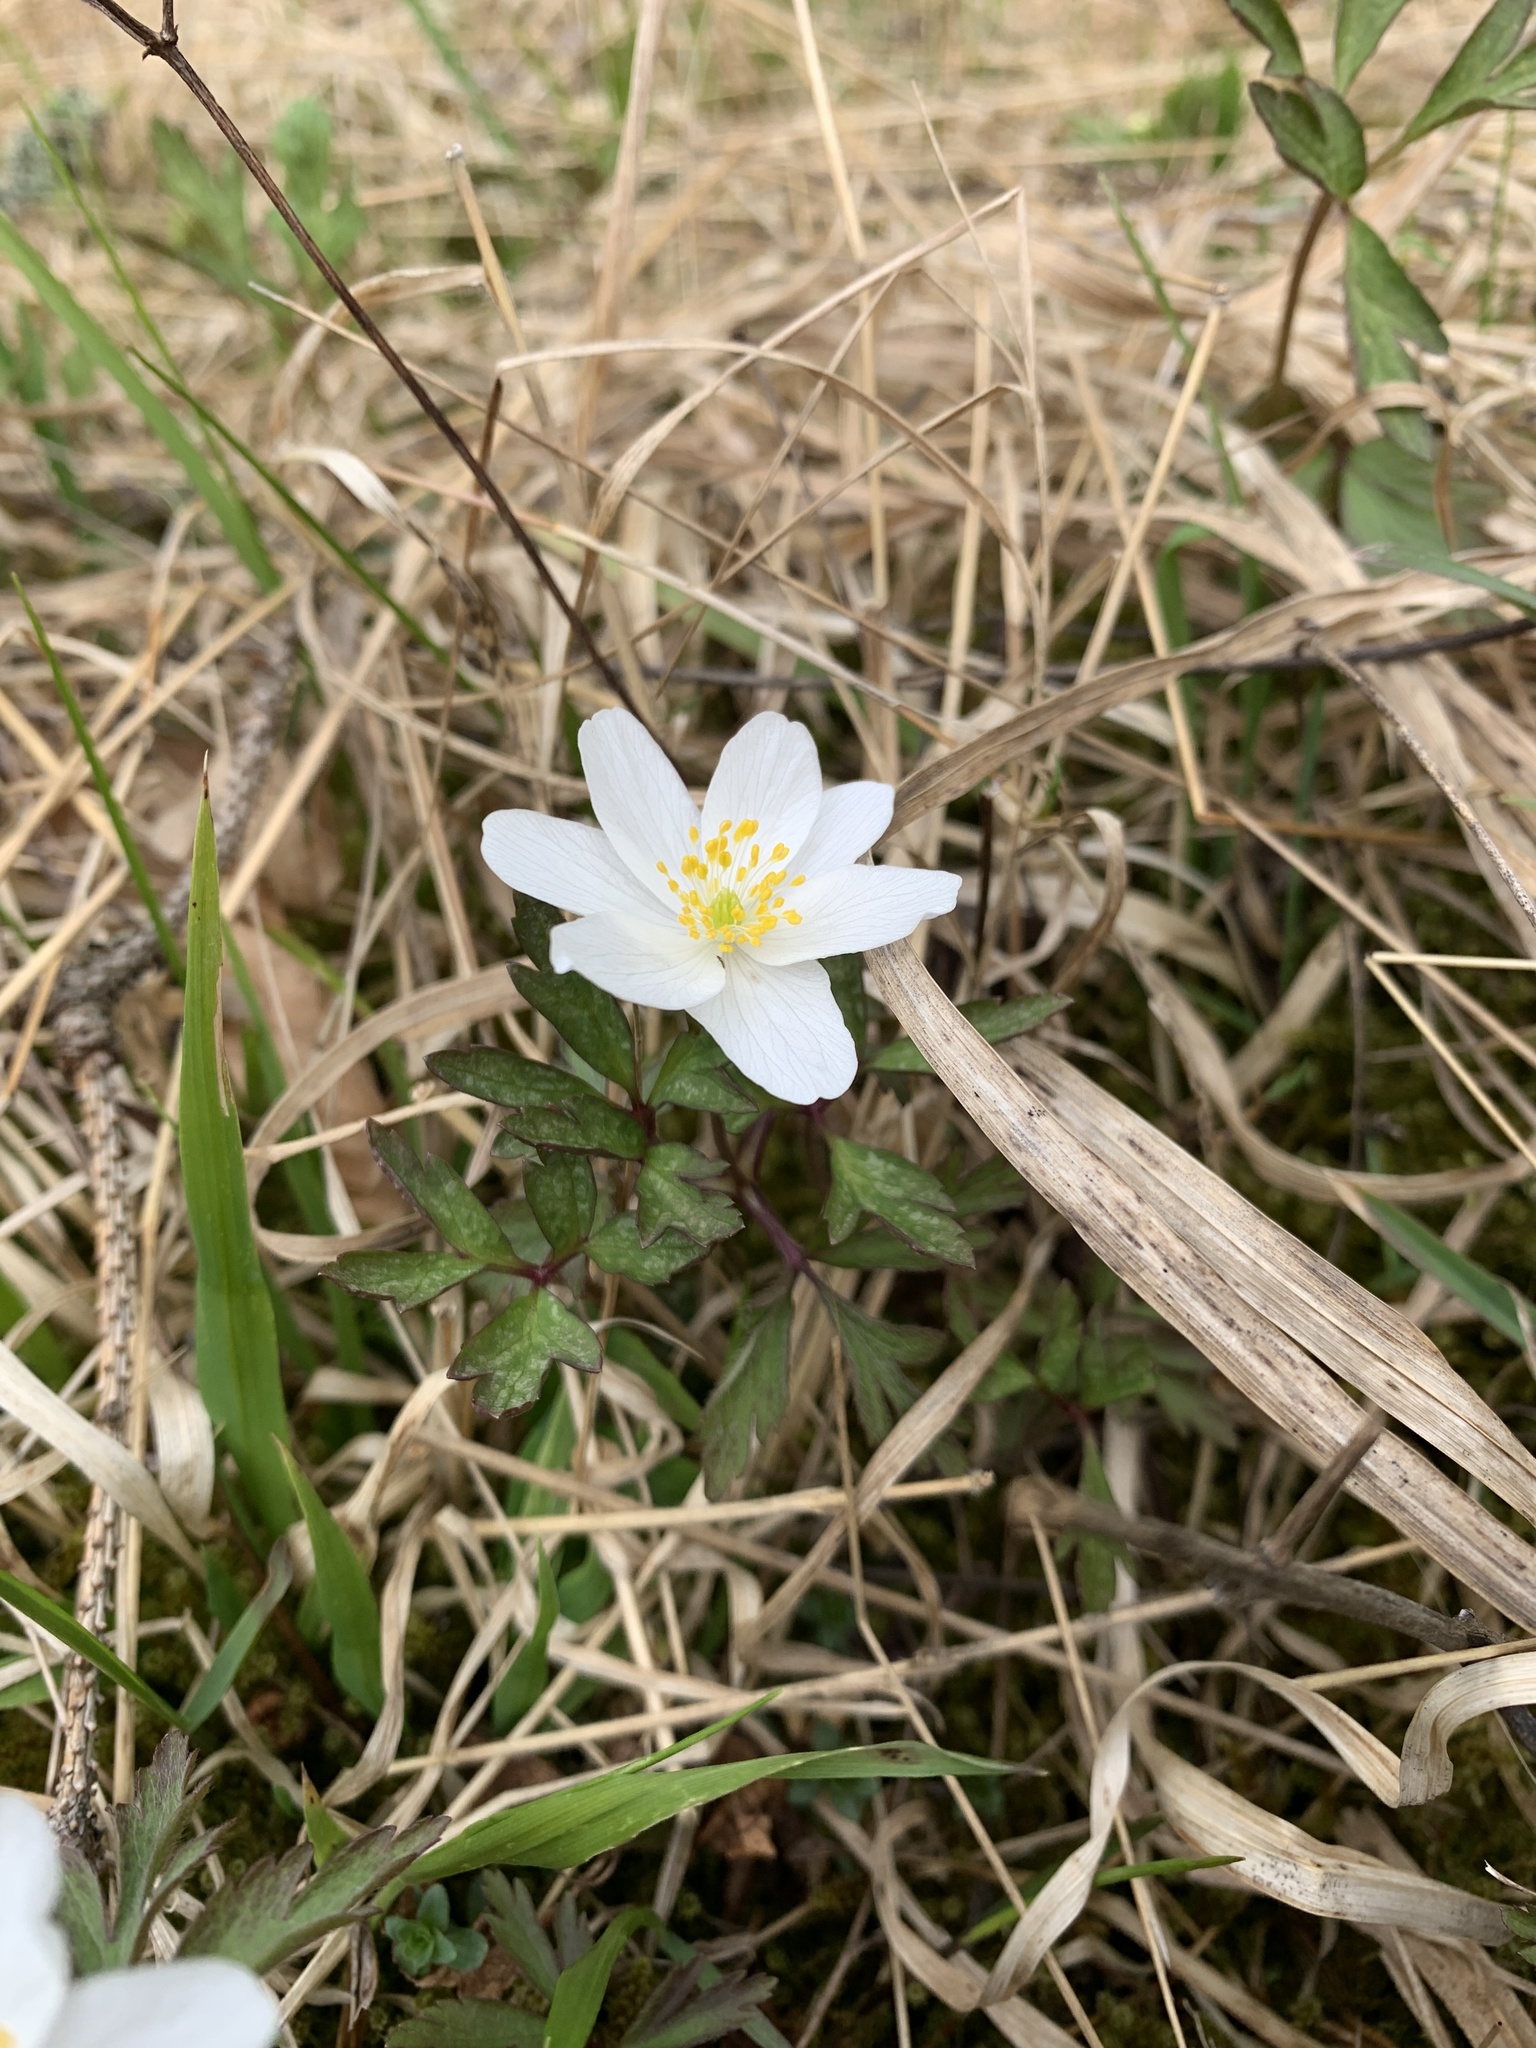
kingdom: Plantae
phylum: Tracheophyta
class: Magnoliopsida
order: Ranunculales
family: Ranunculaceae
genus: Anemone
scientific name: Anemone nemorosa
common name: Wood anemone
